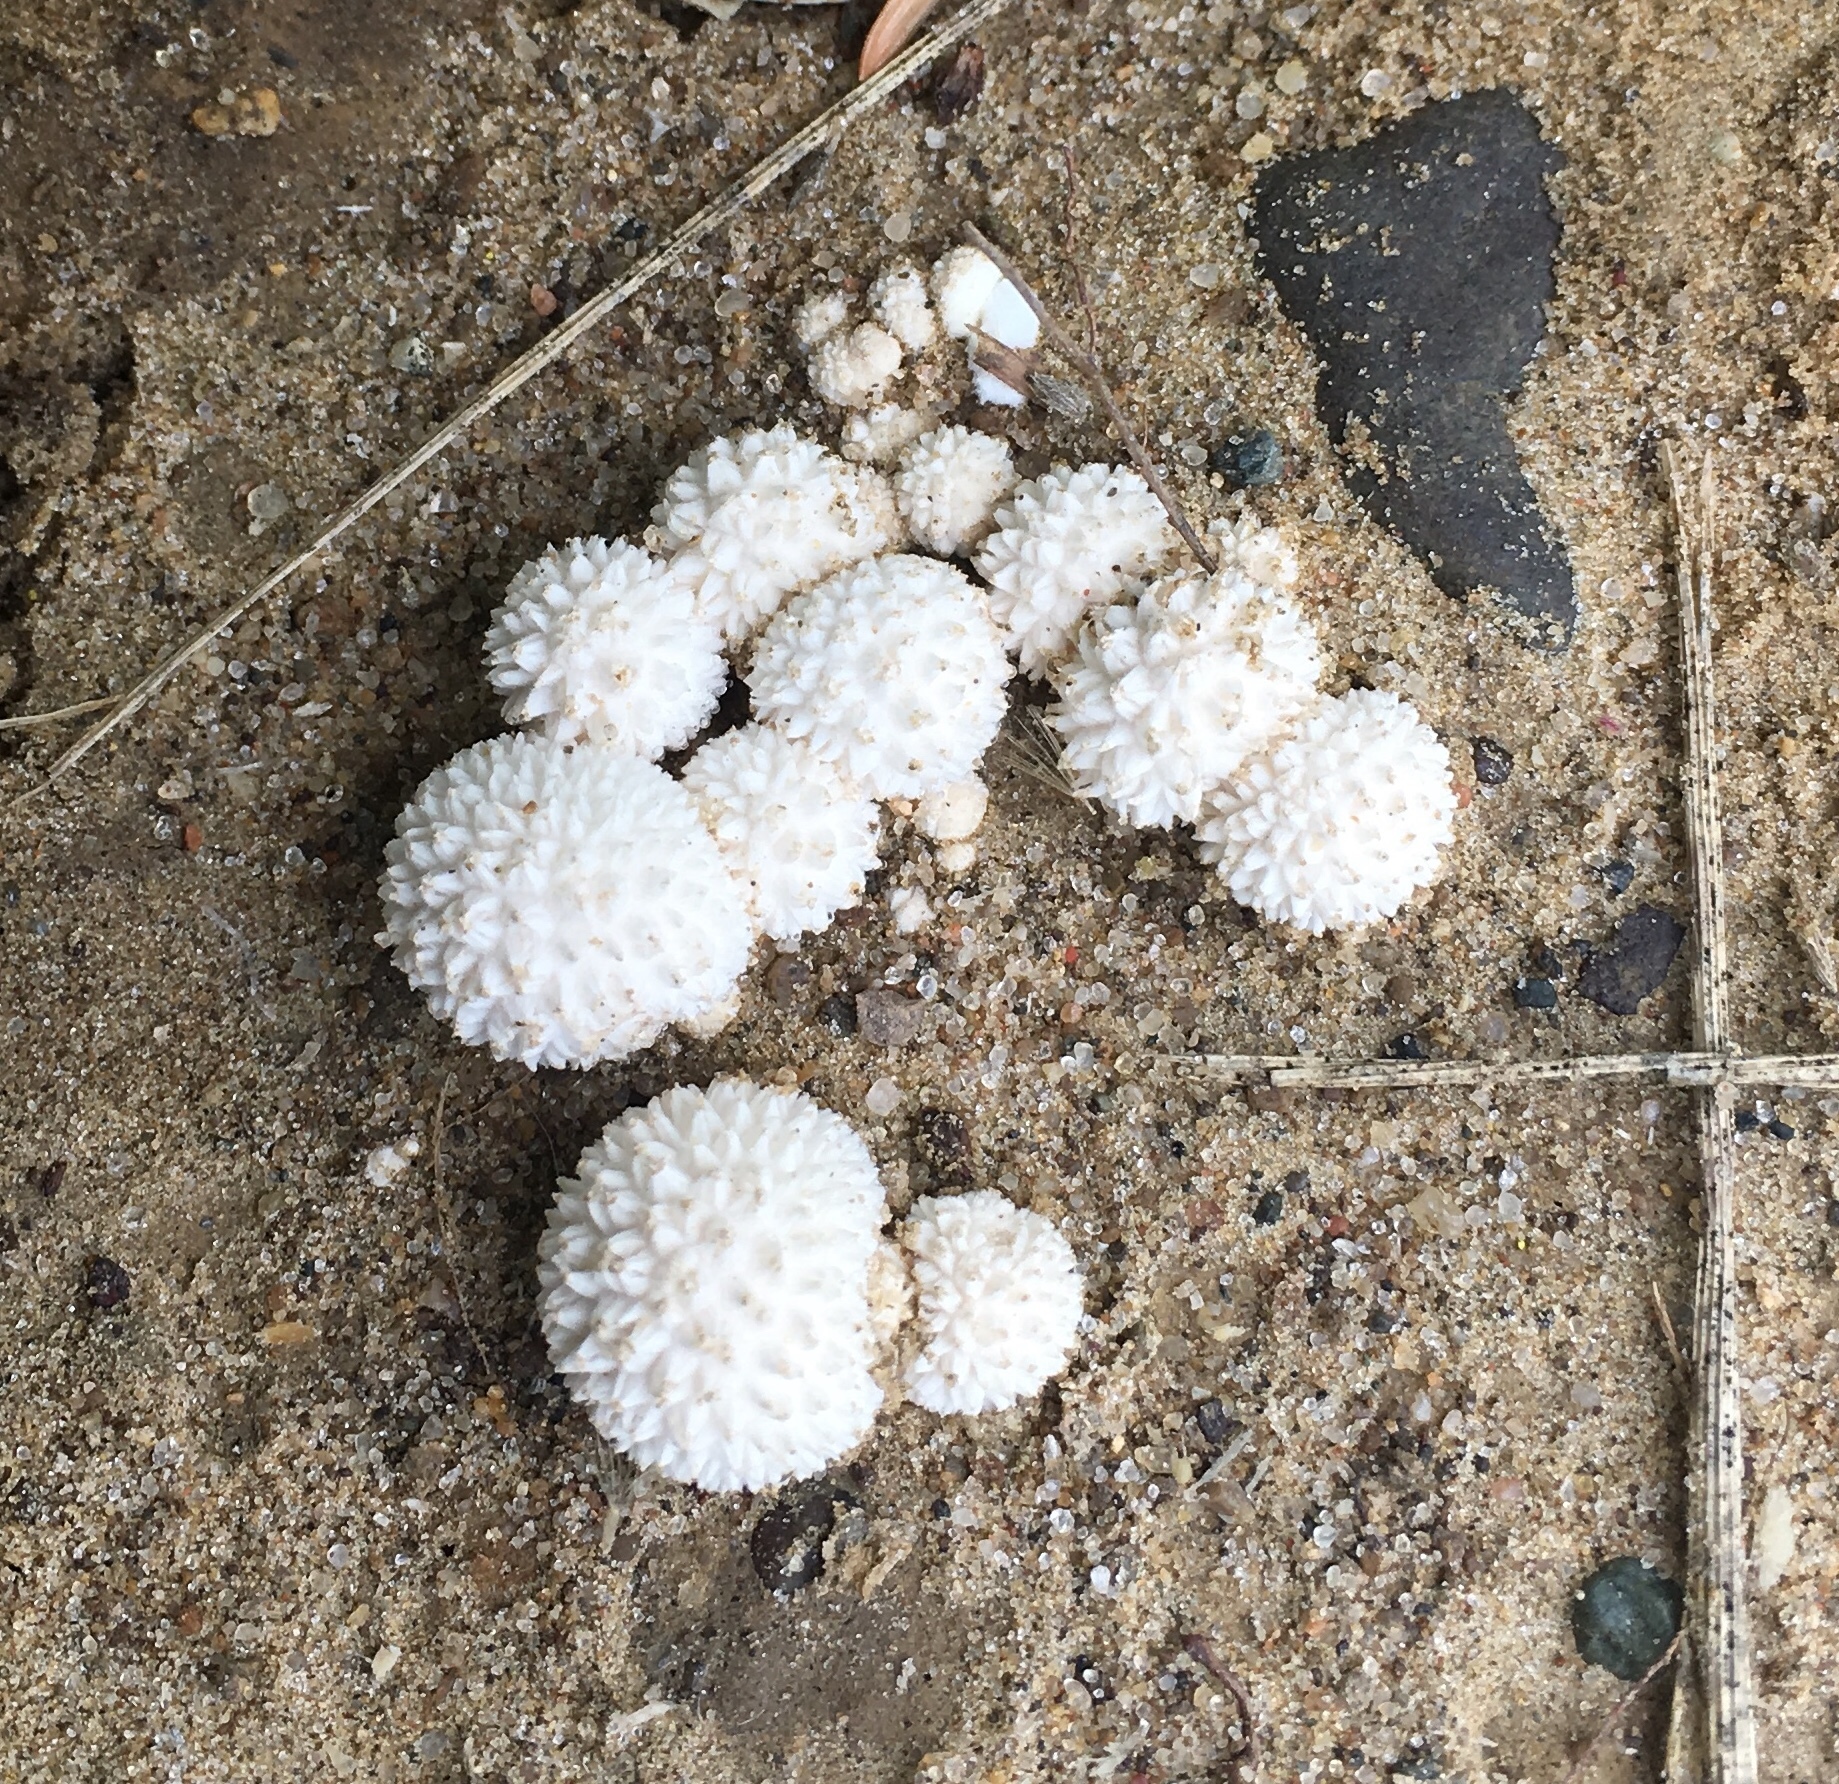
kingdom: Fungi
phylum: Basidiomycota
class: Agaricomycetes
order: Agaricales
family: Agaricaceae
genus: Lycoperdon
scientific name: Lycoperdon marginatum
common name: Peeling puffball
